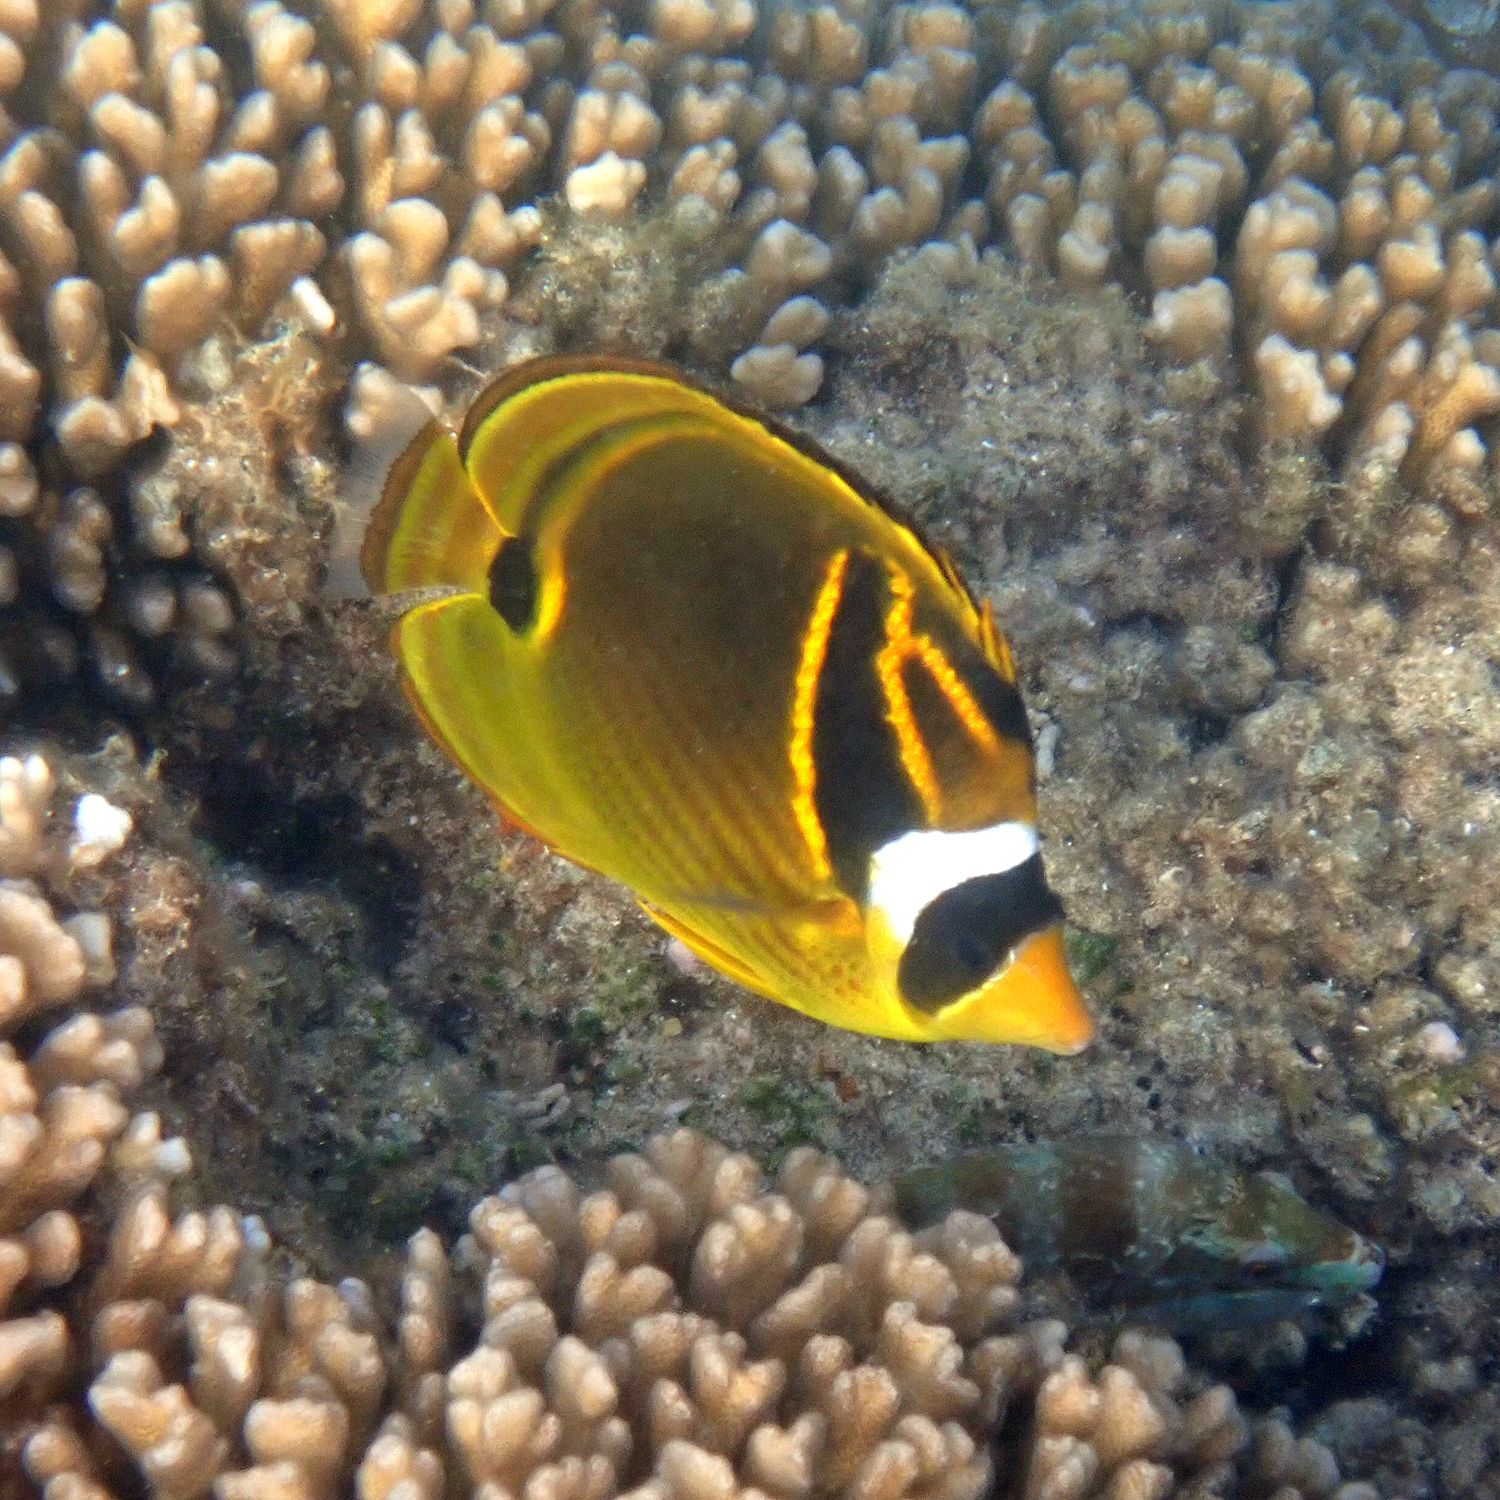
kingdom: Animalia
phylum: Chordata
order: Perciformes
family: Chaetodontidae
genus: Chaetodon
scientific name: Chaetodon lunula
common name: Raccoon butterflyfish
